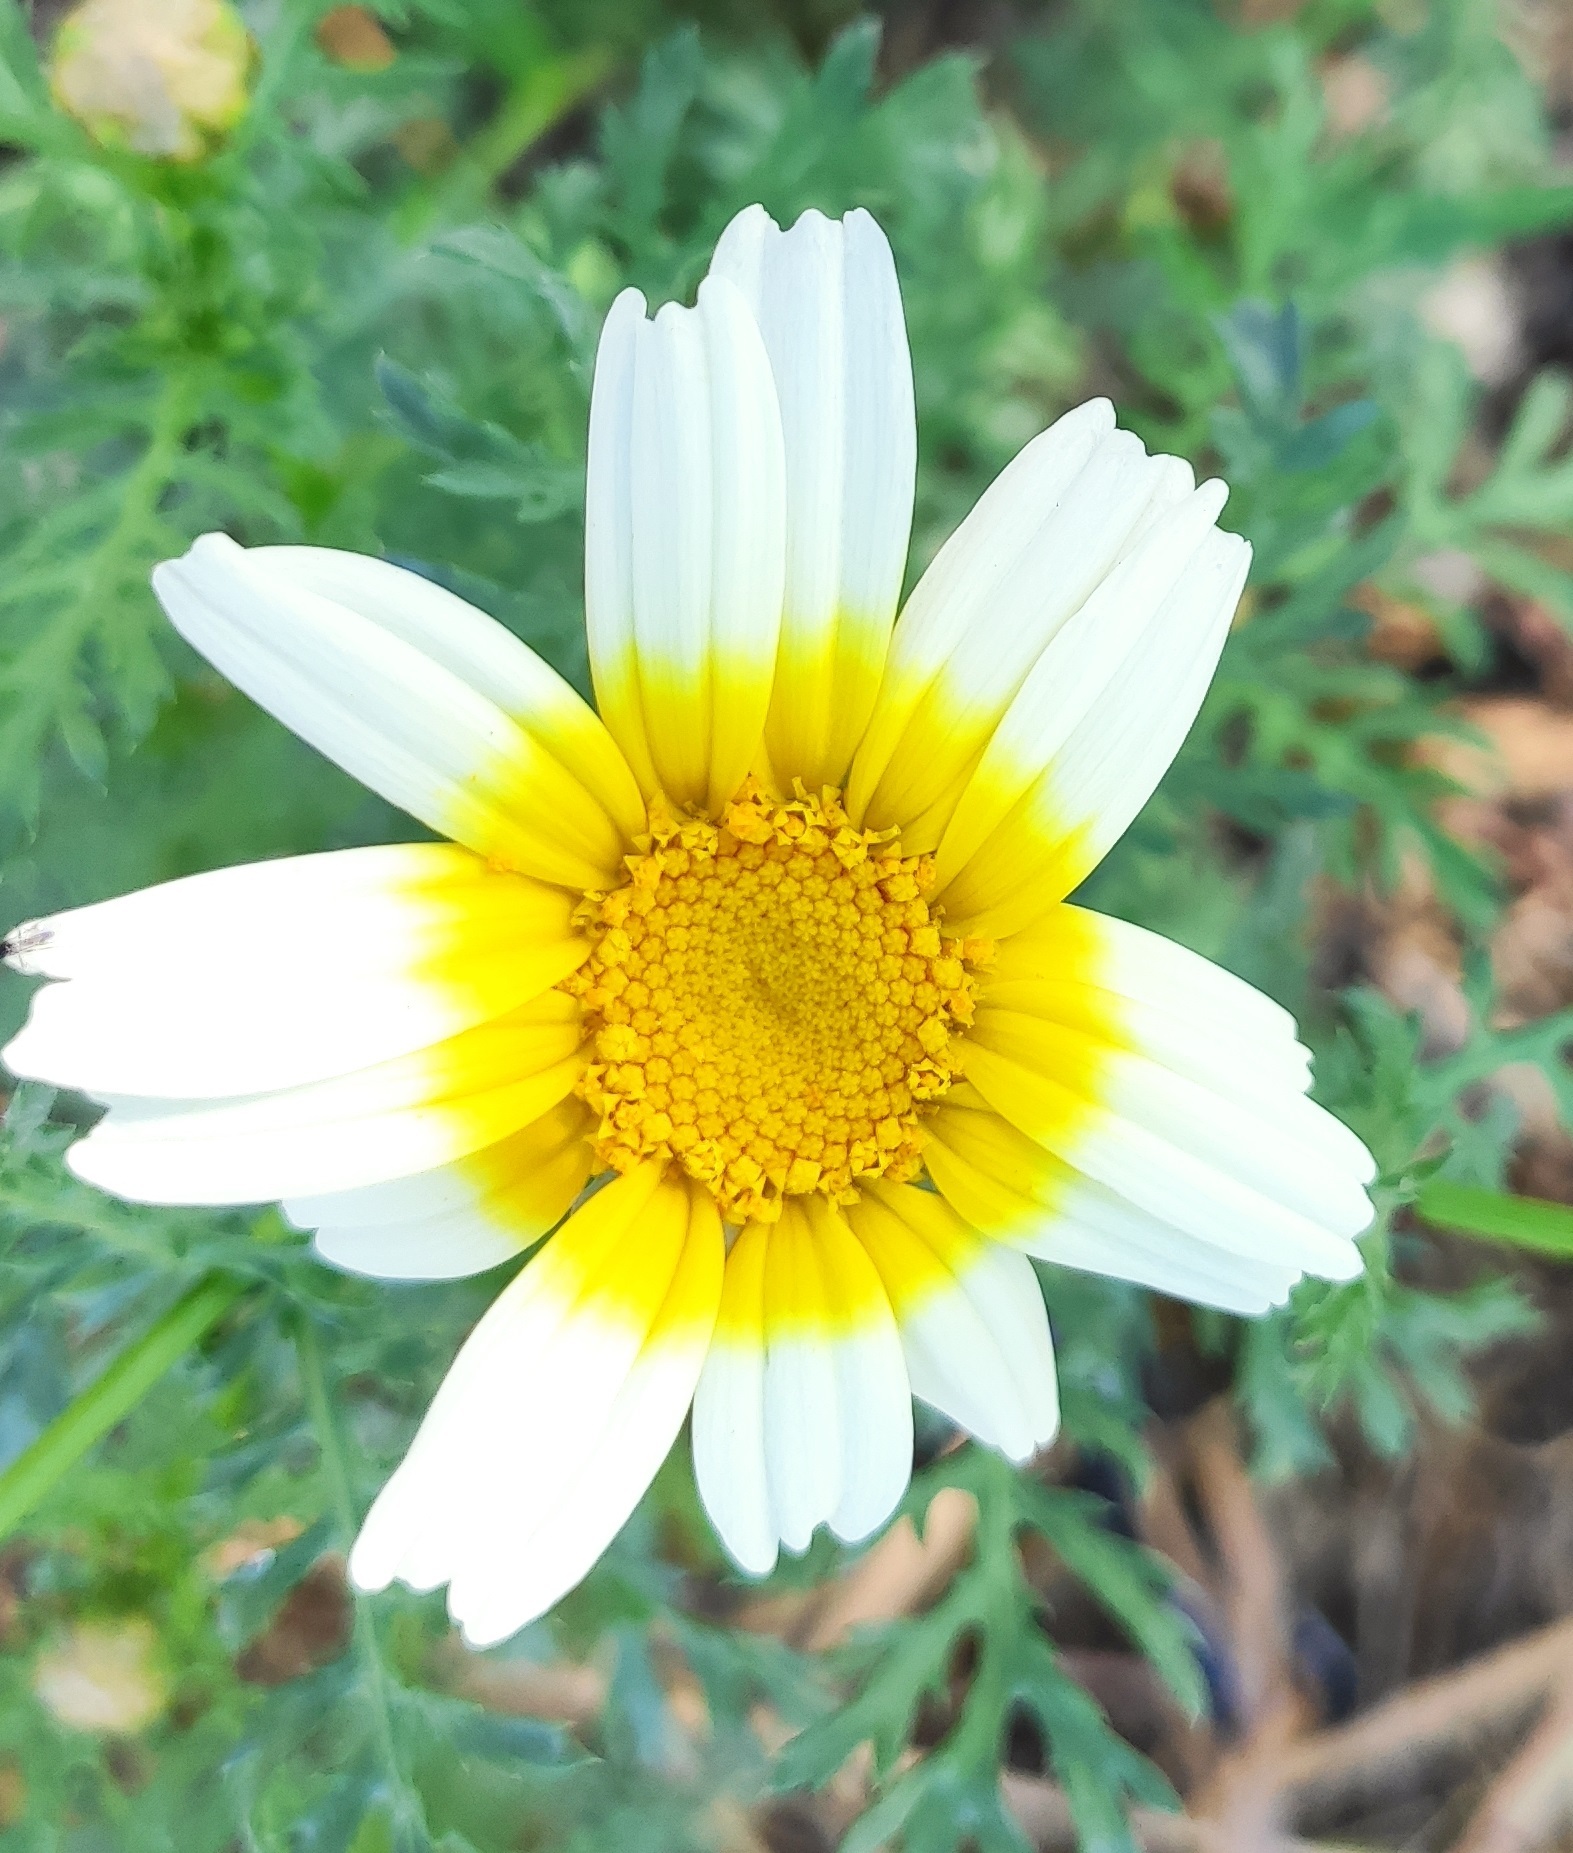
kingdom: Plantae
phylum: Tracheophyta
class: Magnoliopsida
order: Asterales
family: Asteraceae
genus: Glebionis
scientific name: Glebionis coronaria
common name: Crowndaisy
